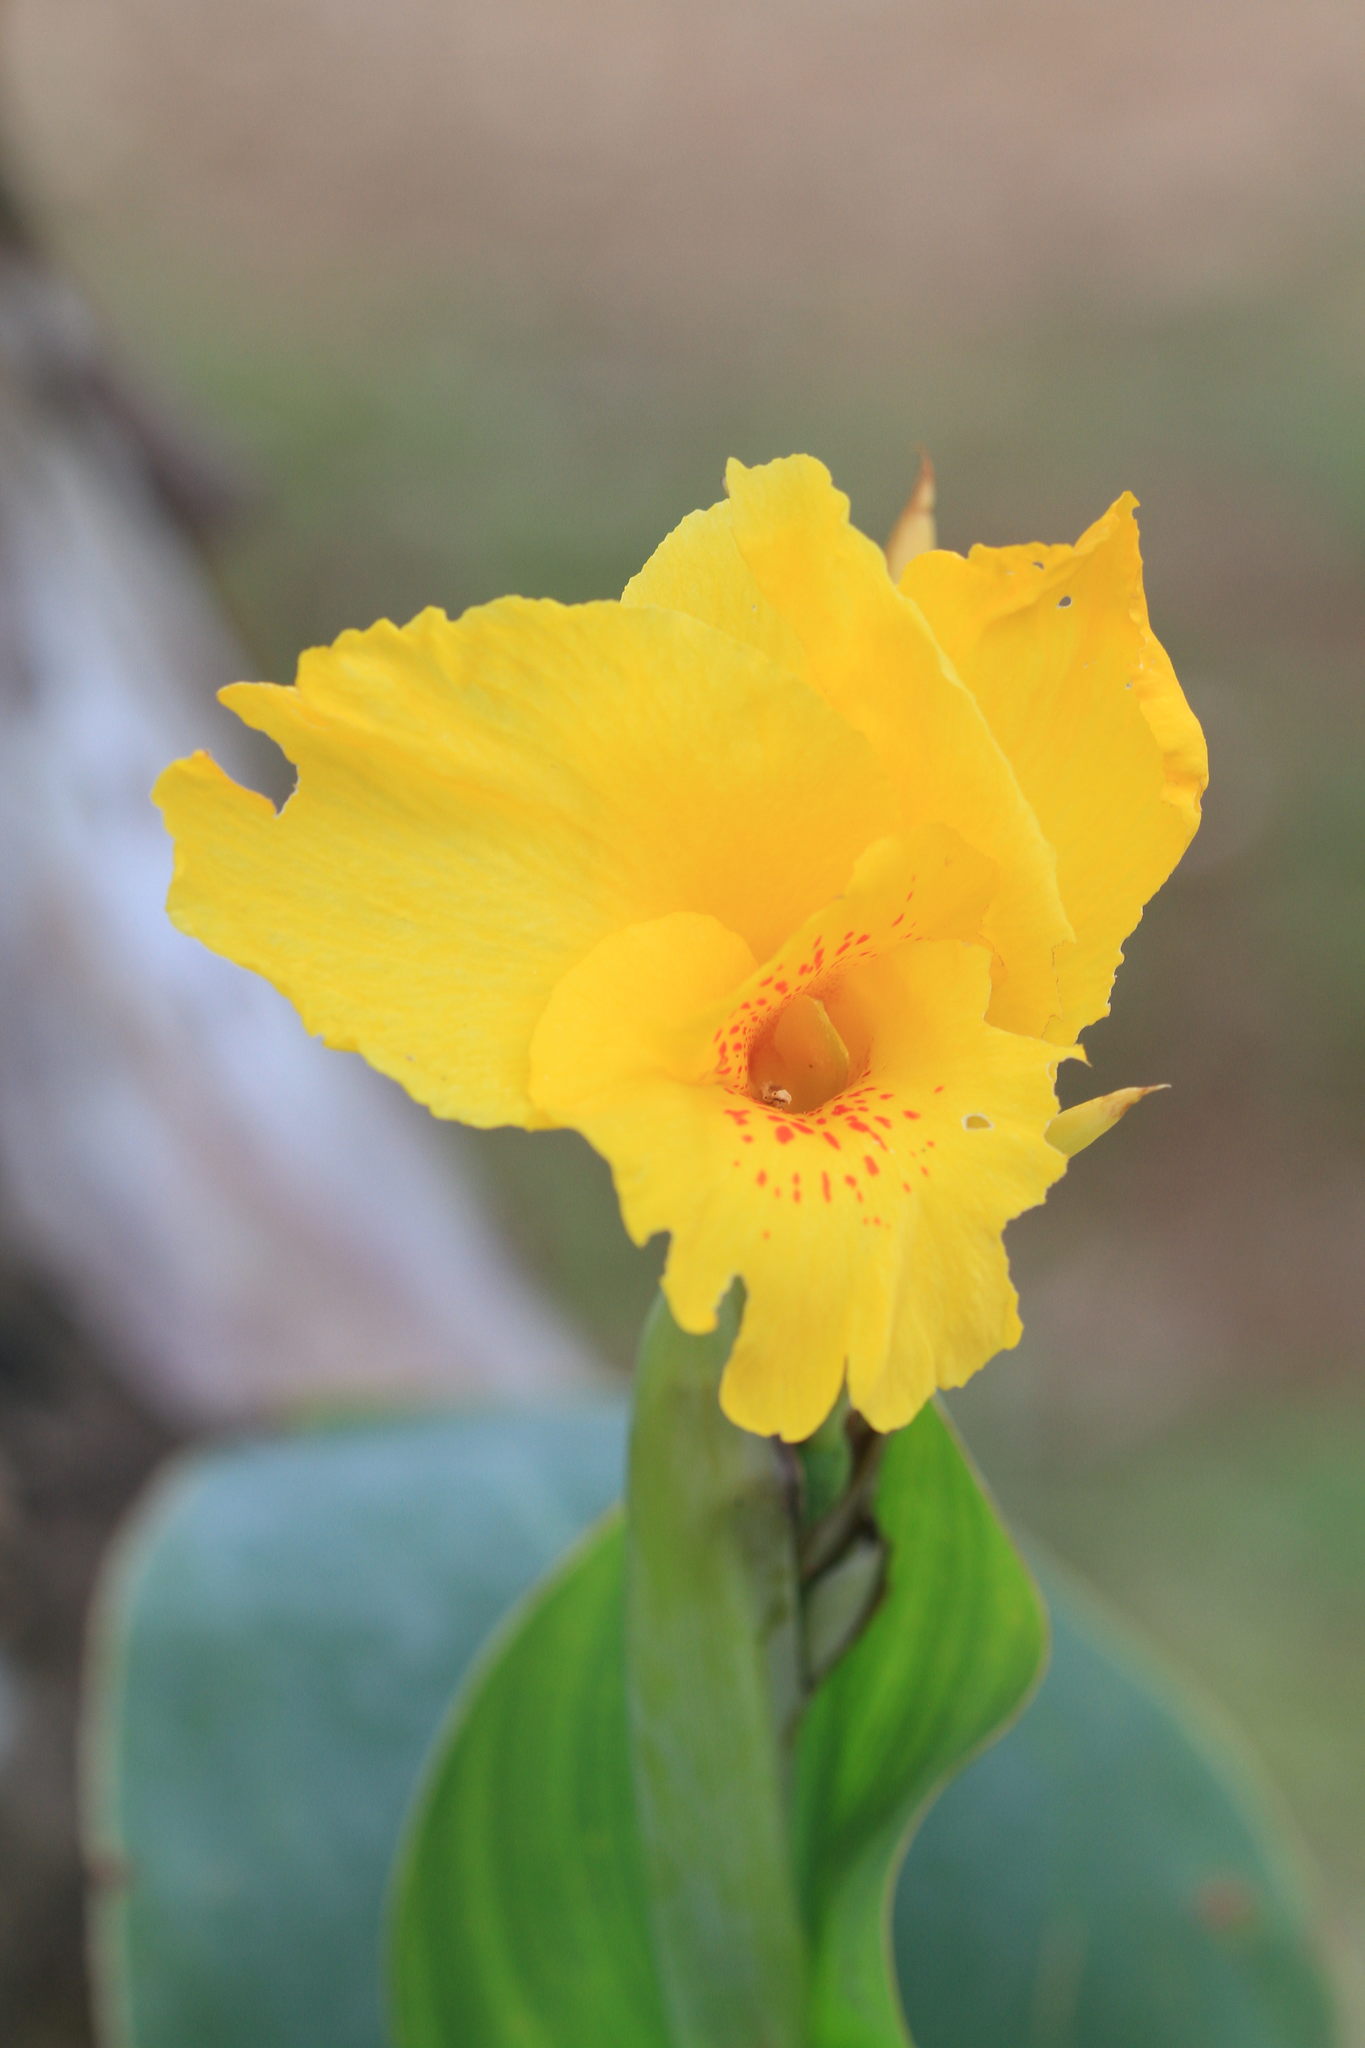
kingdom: Plantae
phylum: Tracheophyta
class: Liliopsida
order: Zingiberales
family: Cannaceae
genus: Canna
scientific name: Canna hybrida
